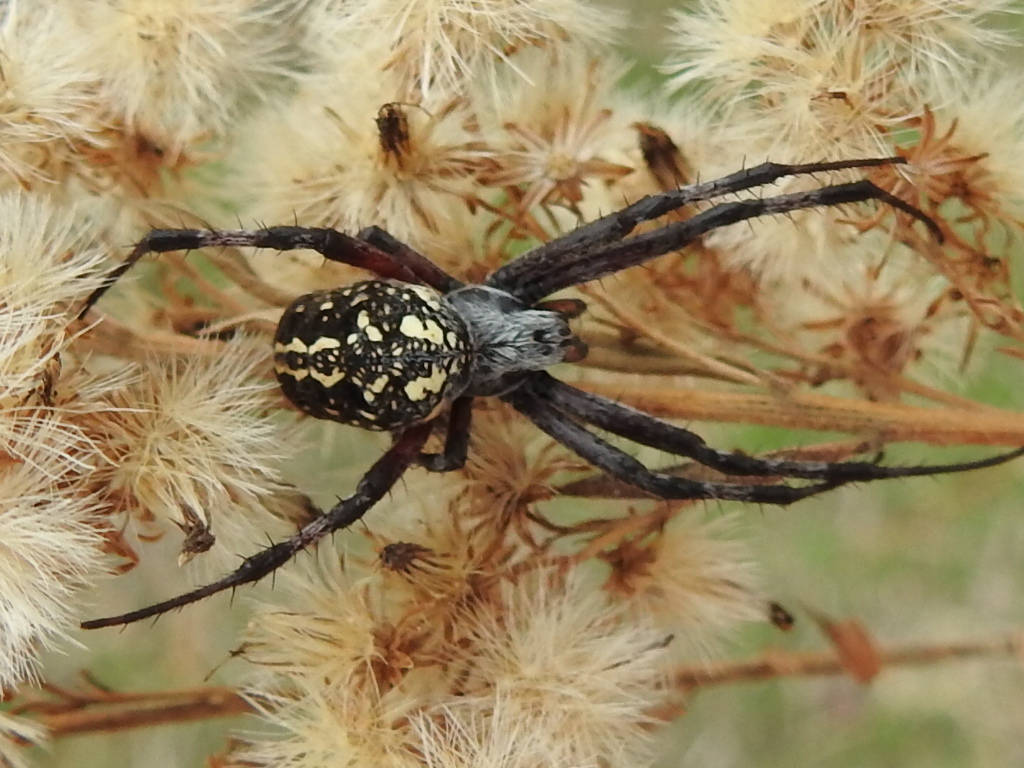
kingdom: Animalia
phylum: Arthropoda
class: Arachnida
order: Araneae
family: Araneidae
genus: Neoscona
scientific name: Neoscona oaxacensis
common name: Orb weavers
